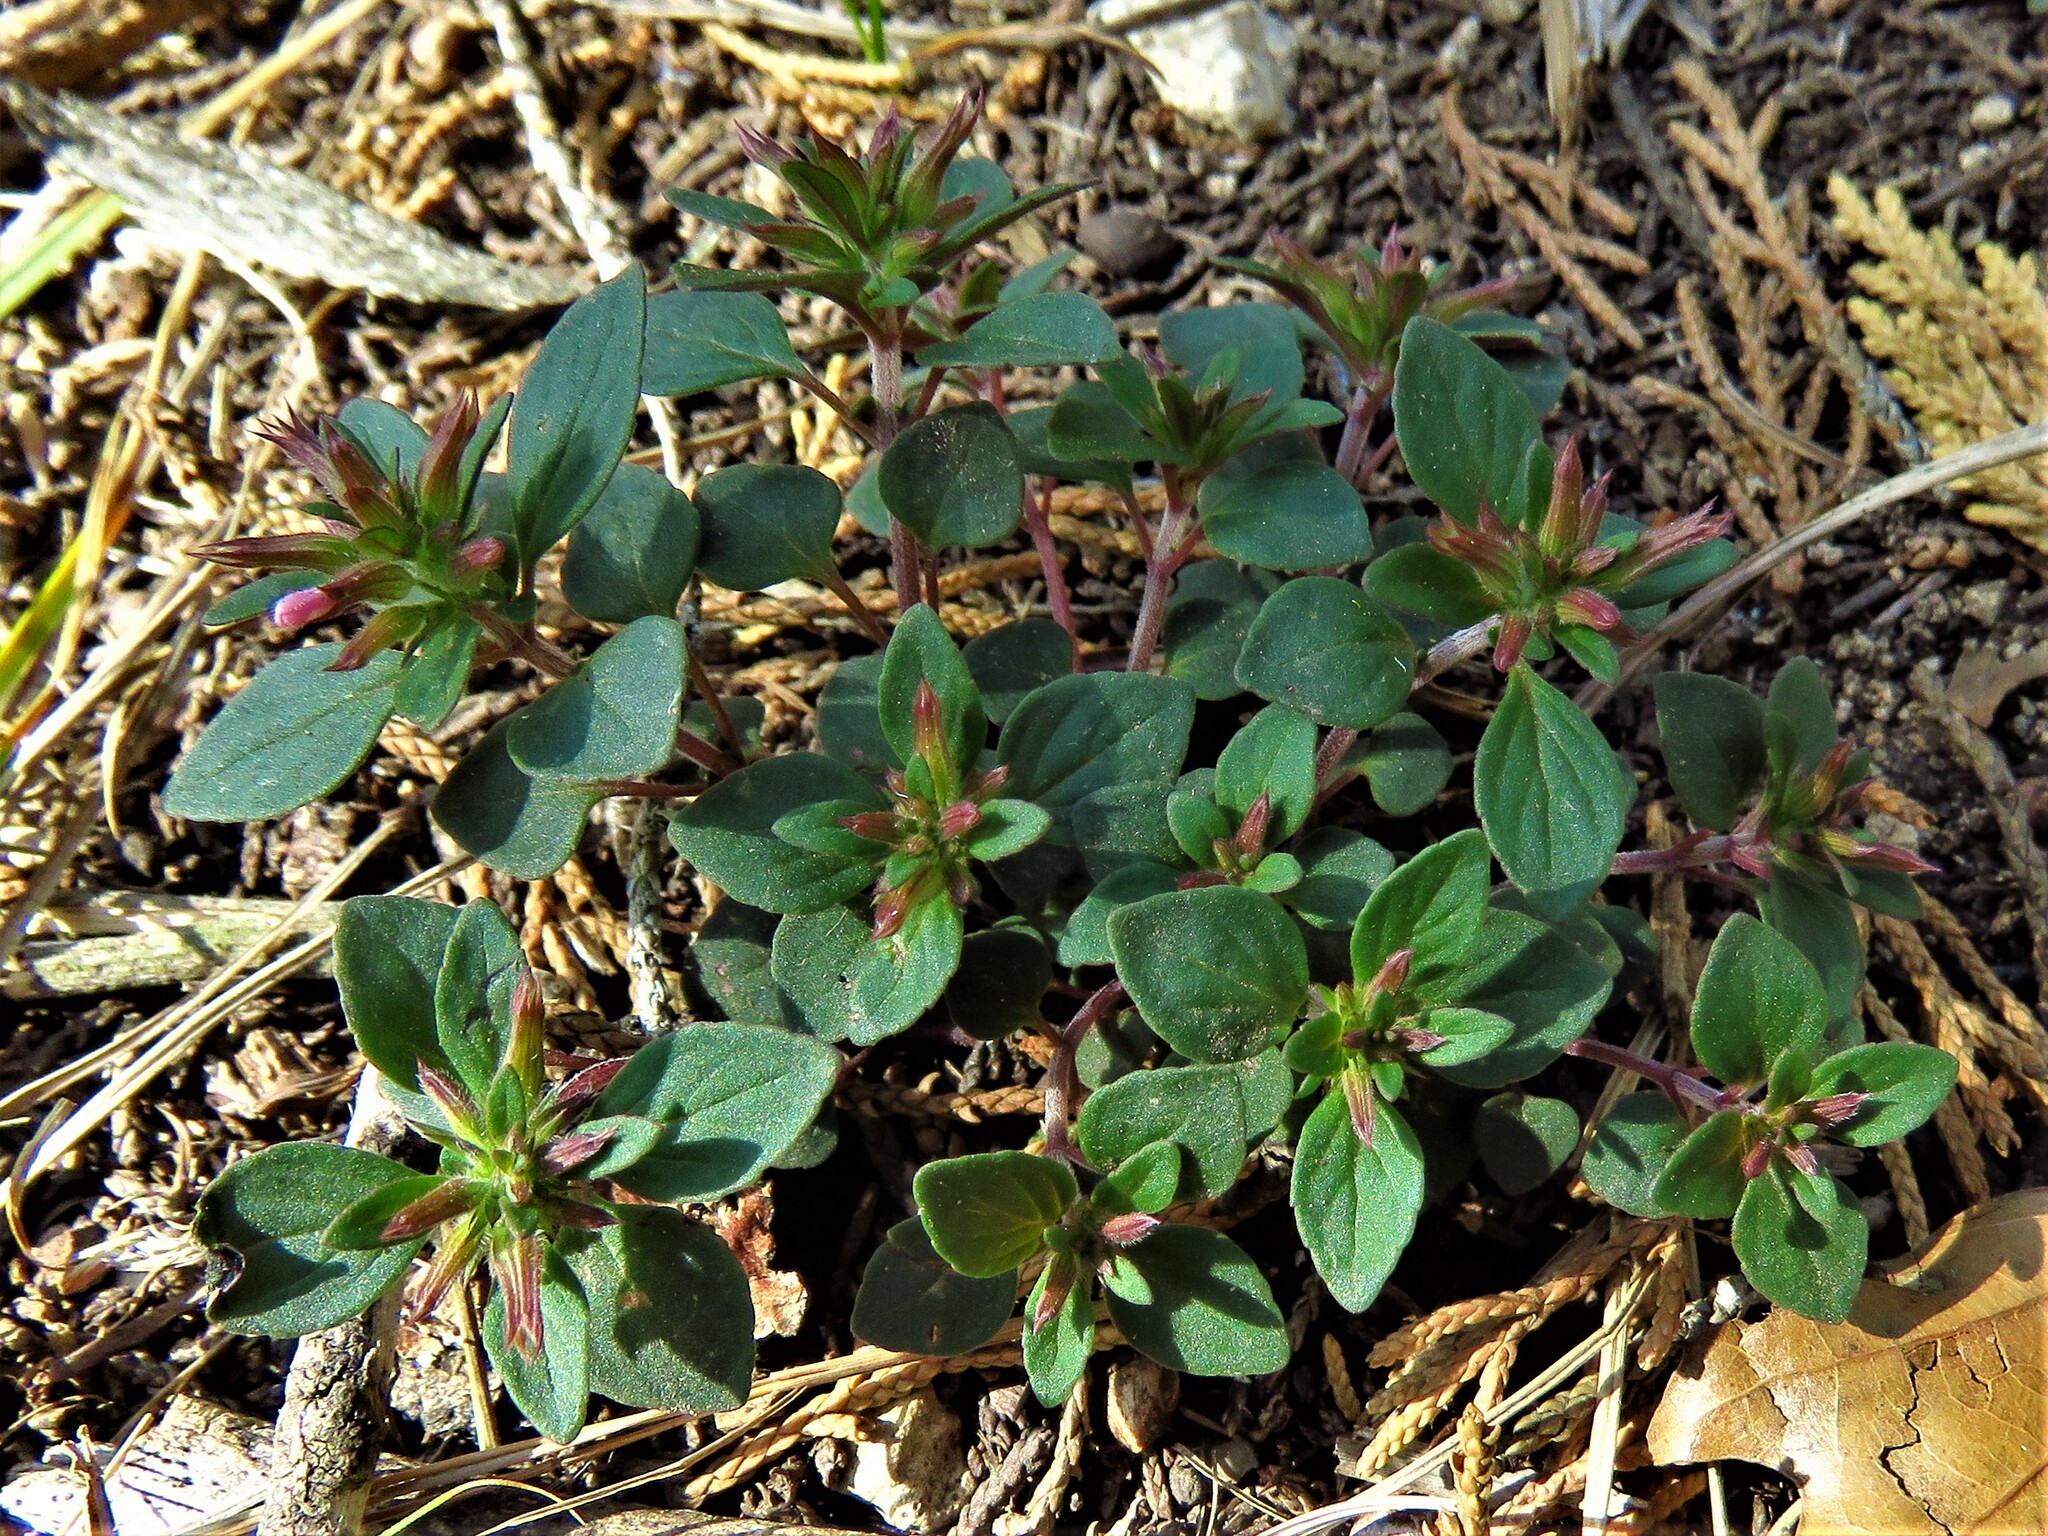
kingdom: Plantae
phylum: Tracheophyta
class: Magnoliopsida
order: Lamiales
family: Lamiaceae
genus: Hedeoma
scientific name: Hedeoma acinoides
